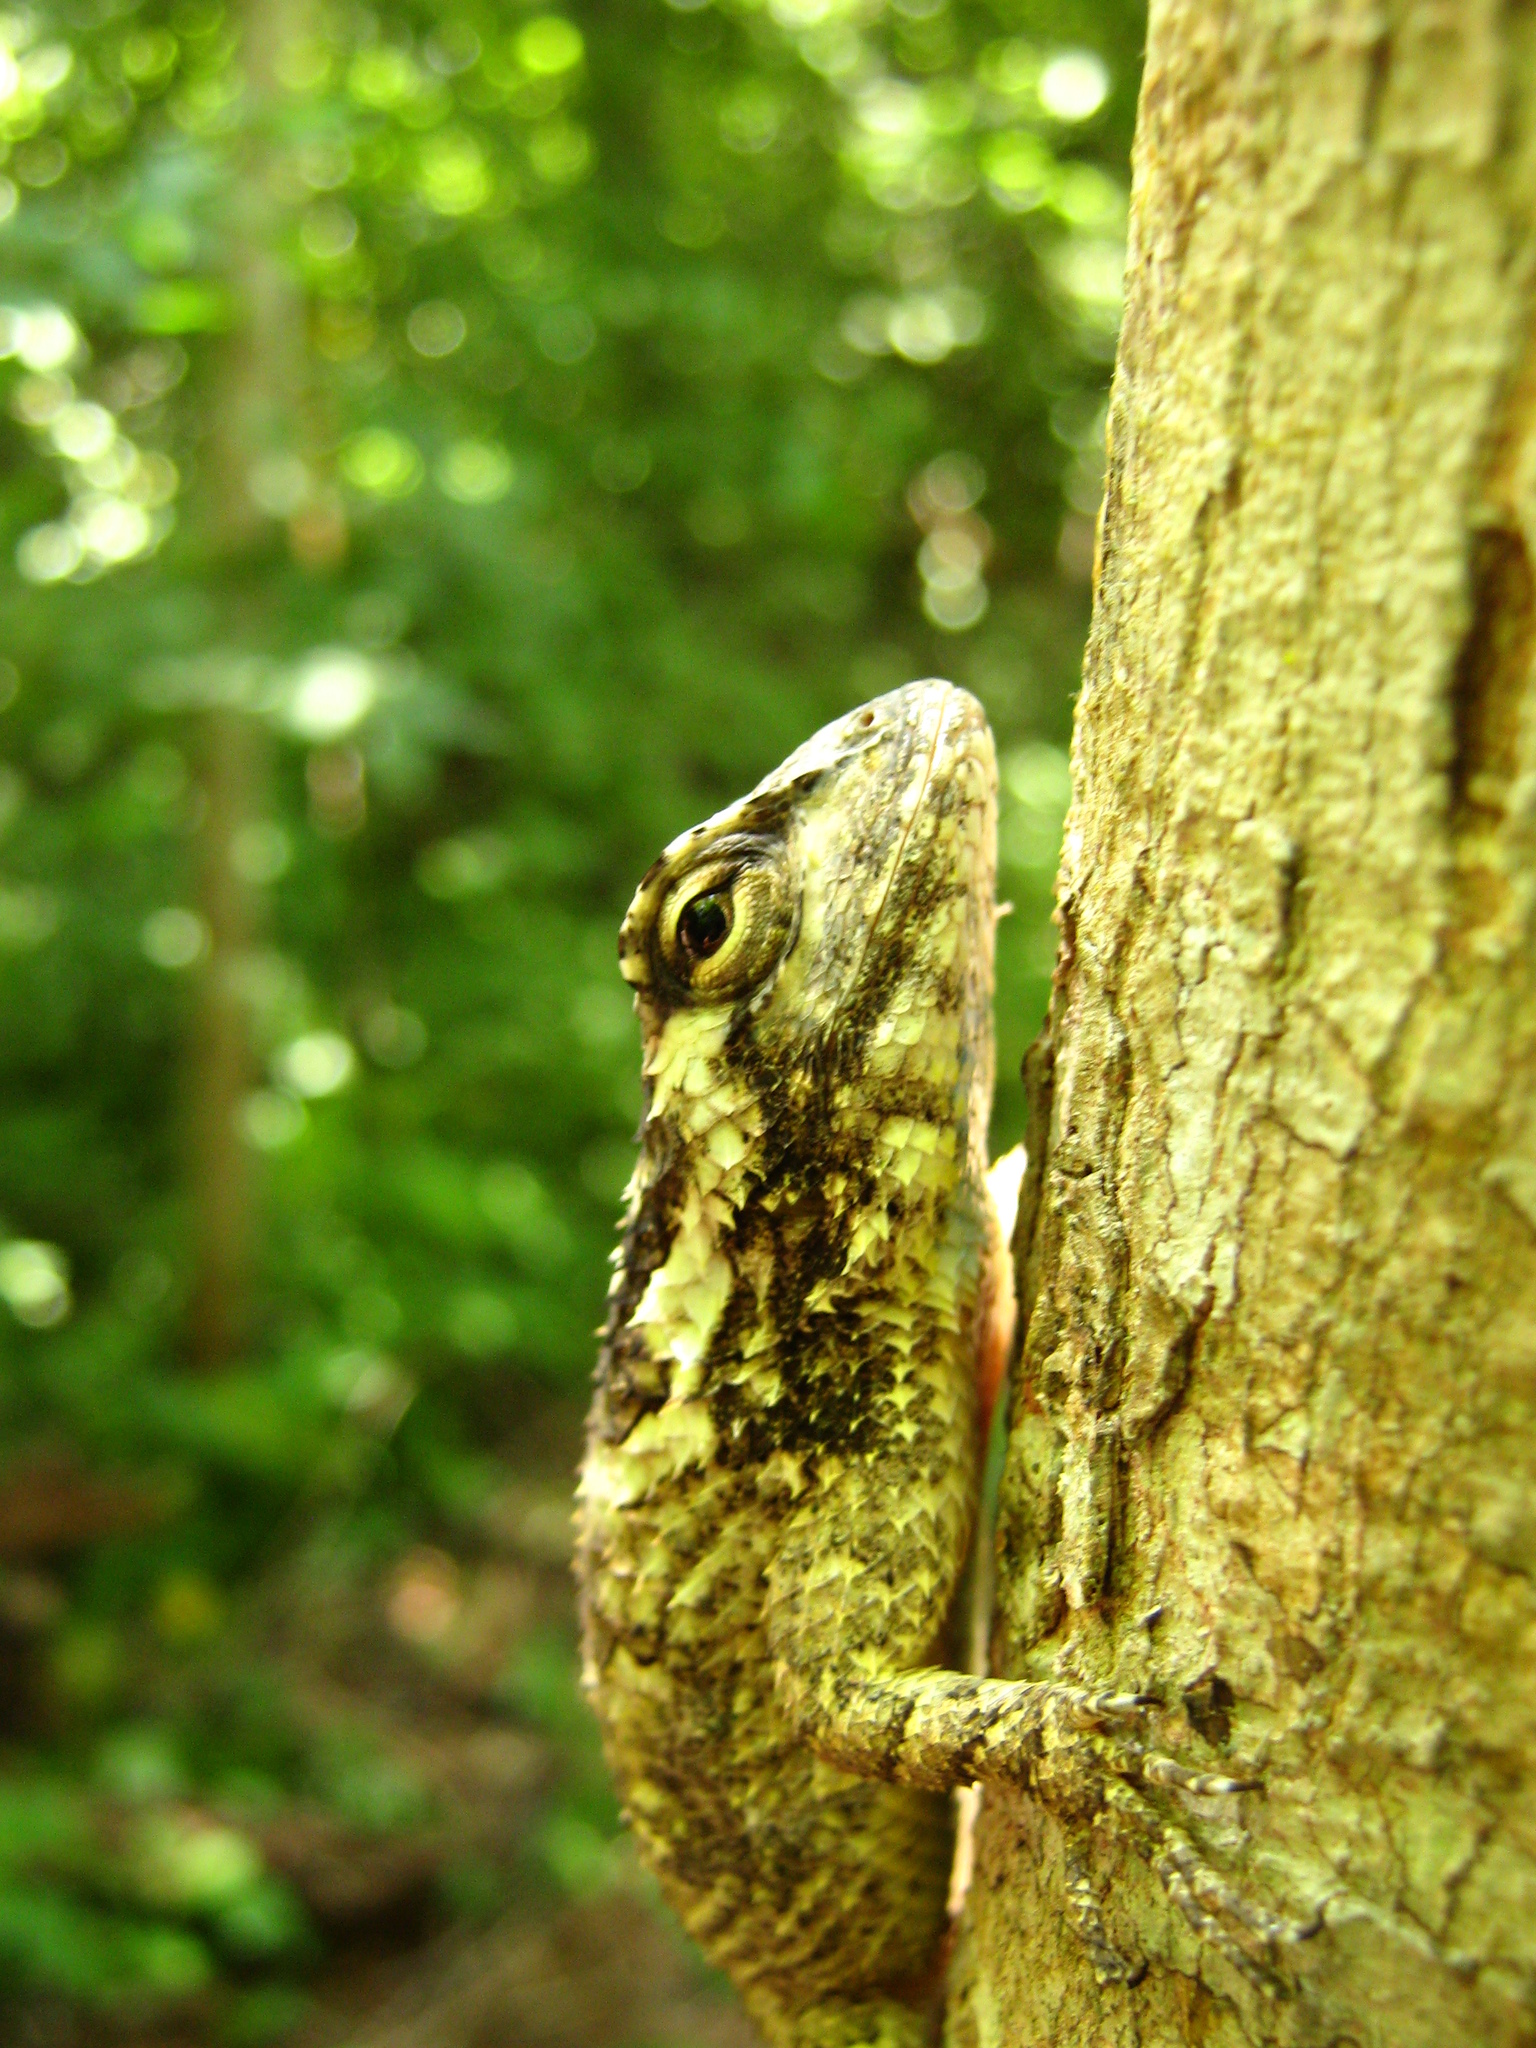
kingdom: Animalia
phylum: Chordata
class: Squamata
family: Phrynosomatidae
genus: Sceloporus
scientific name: Sceloporus melanorhinus
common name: Black-nosed lizard
